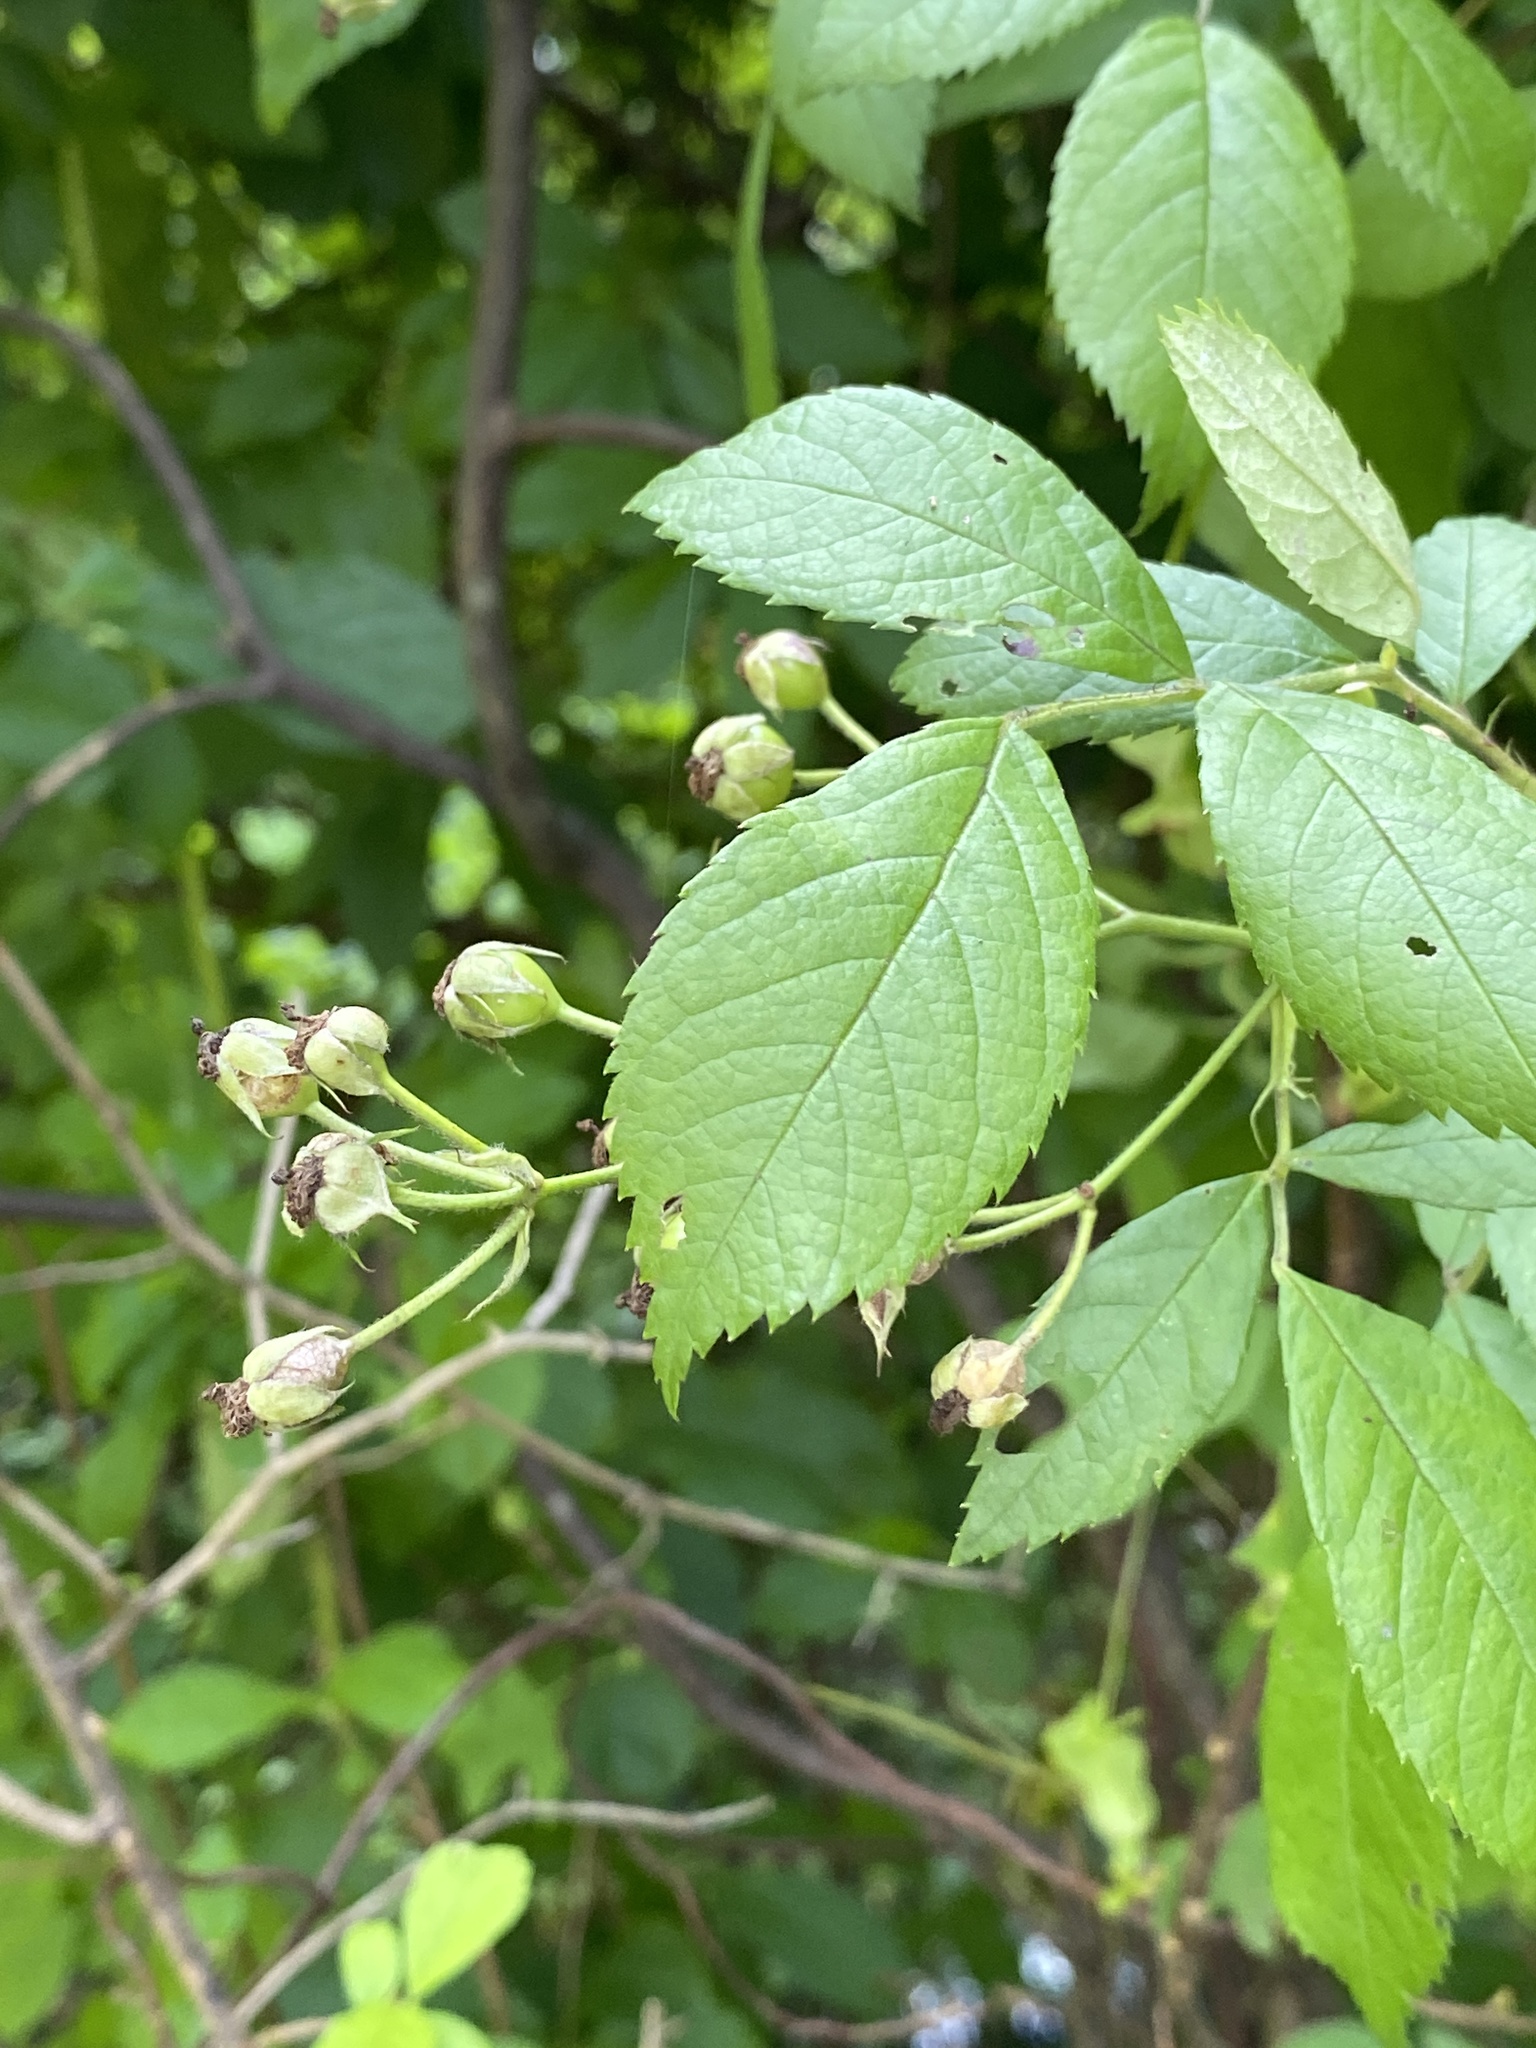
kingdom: Plantae
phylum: Tracheophyta
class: Magnoliopsida
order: Rosales
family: Rosaceae
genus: Rosa
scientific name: Rosa multiflora
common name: Multiflora rose
